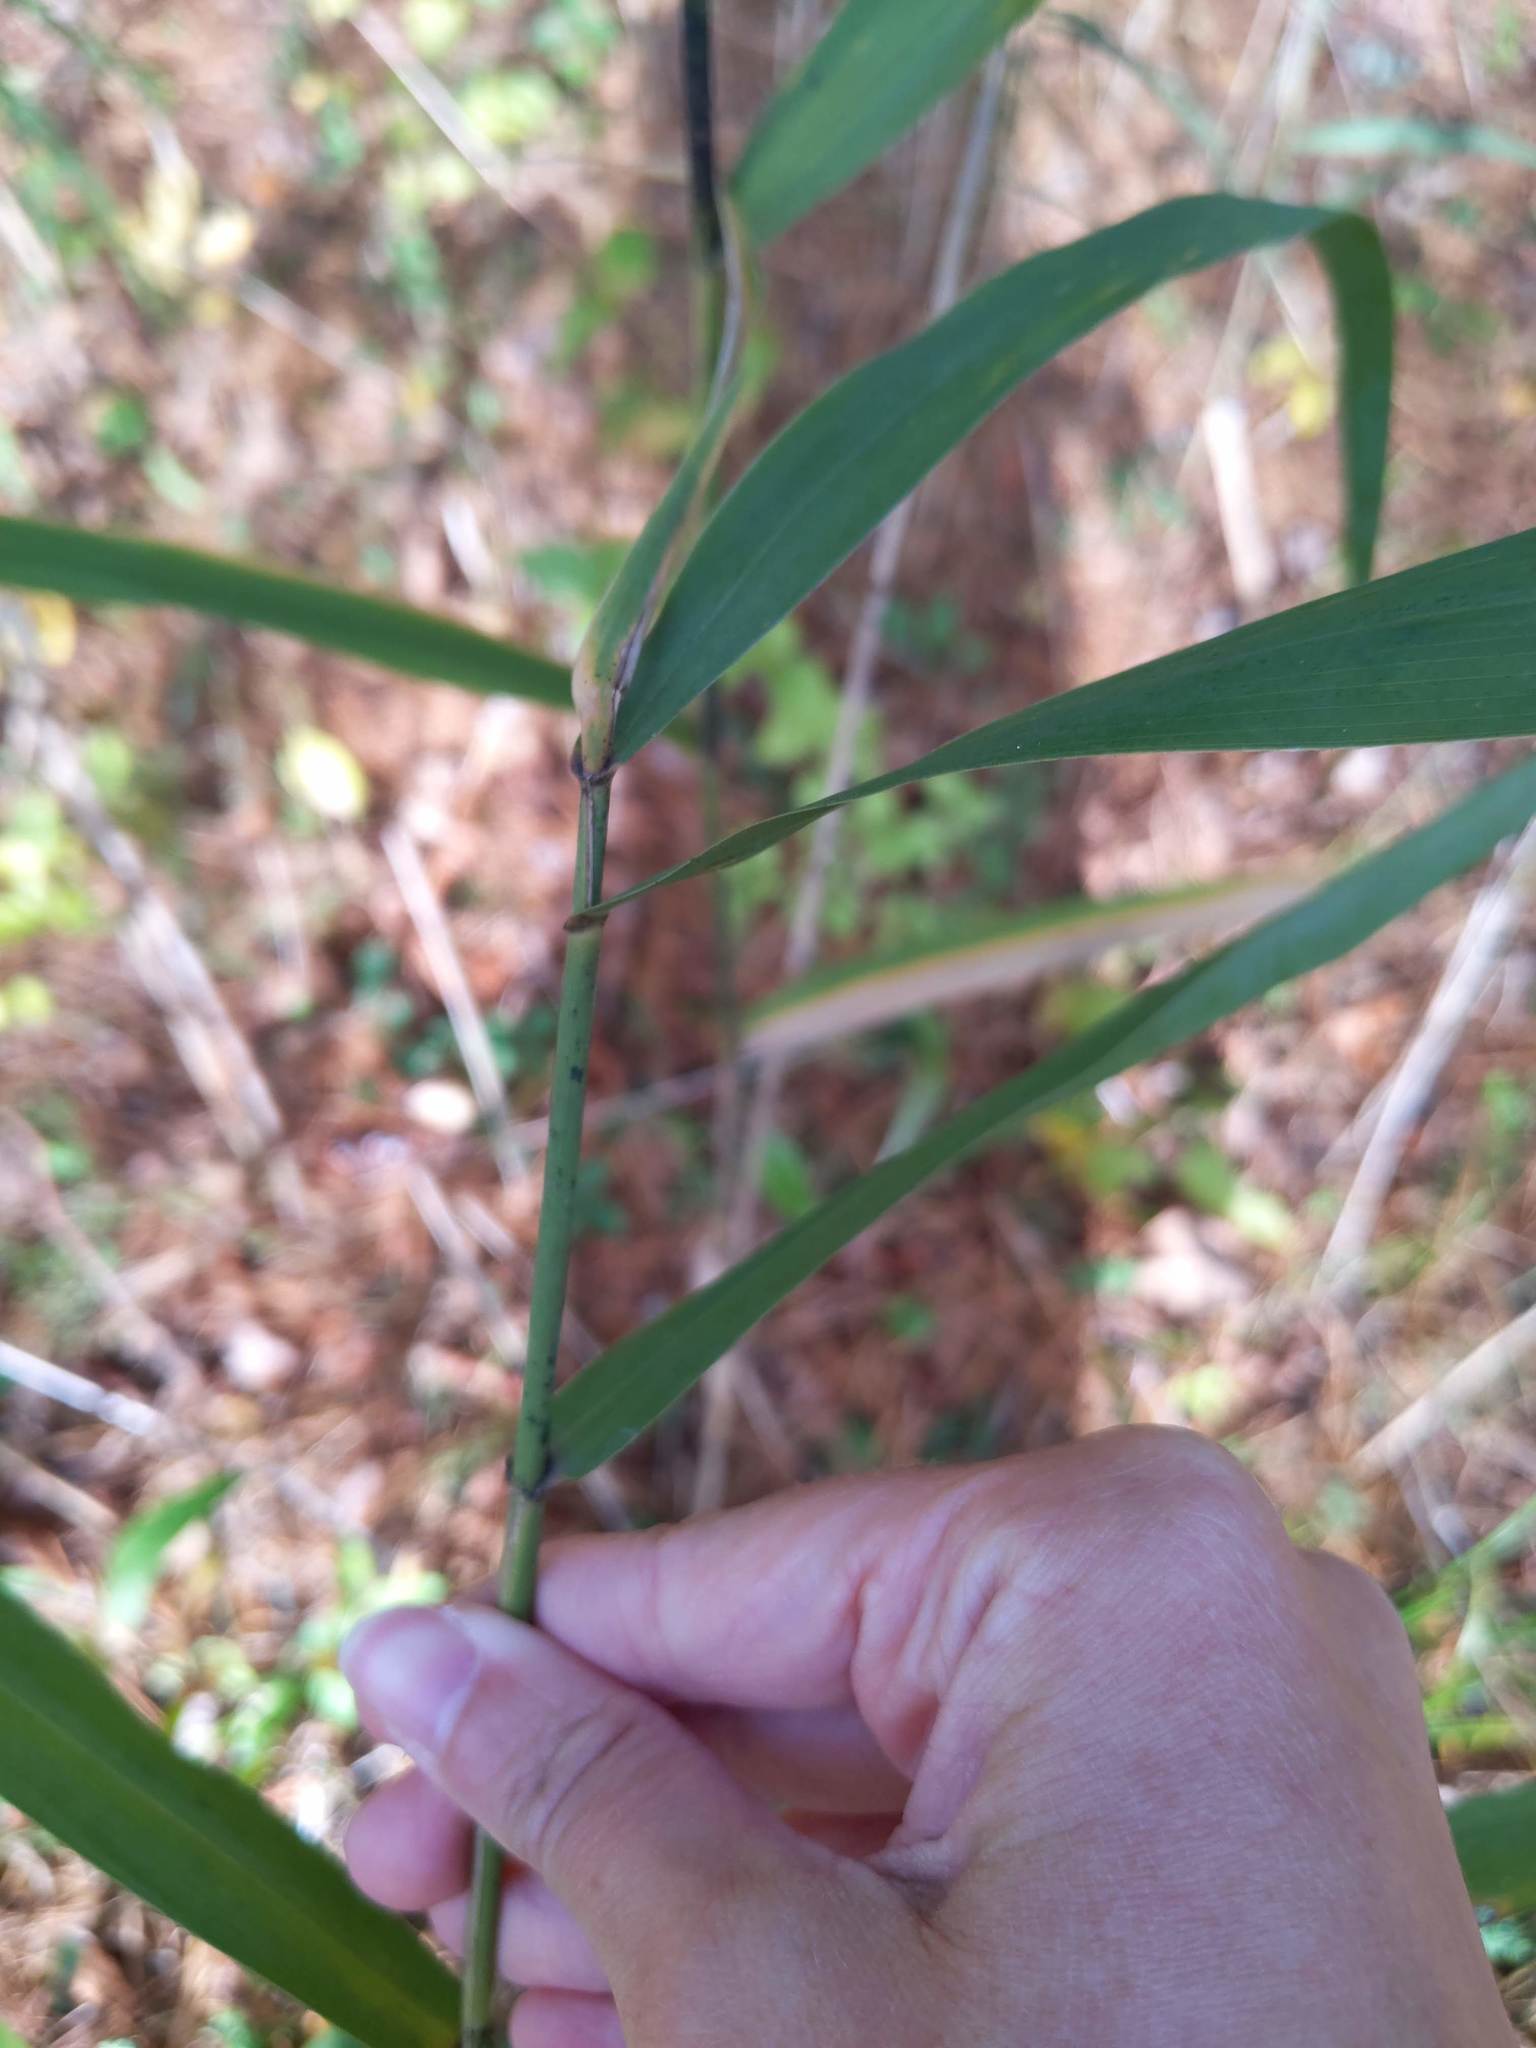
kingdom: Plantae
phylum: Tracheophyta
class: Liliopsida
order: Poales
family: Poaceae
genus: Phragmites
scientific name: Phragmites australis
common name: Common reed
